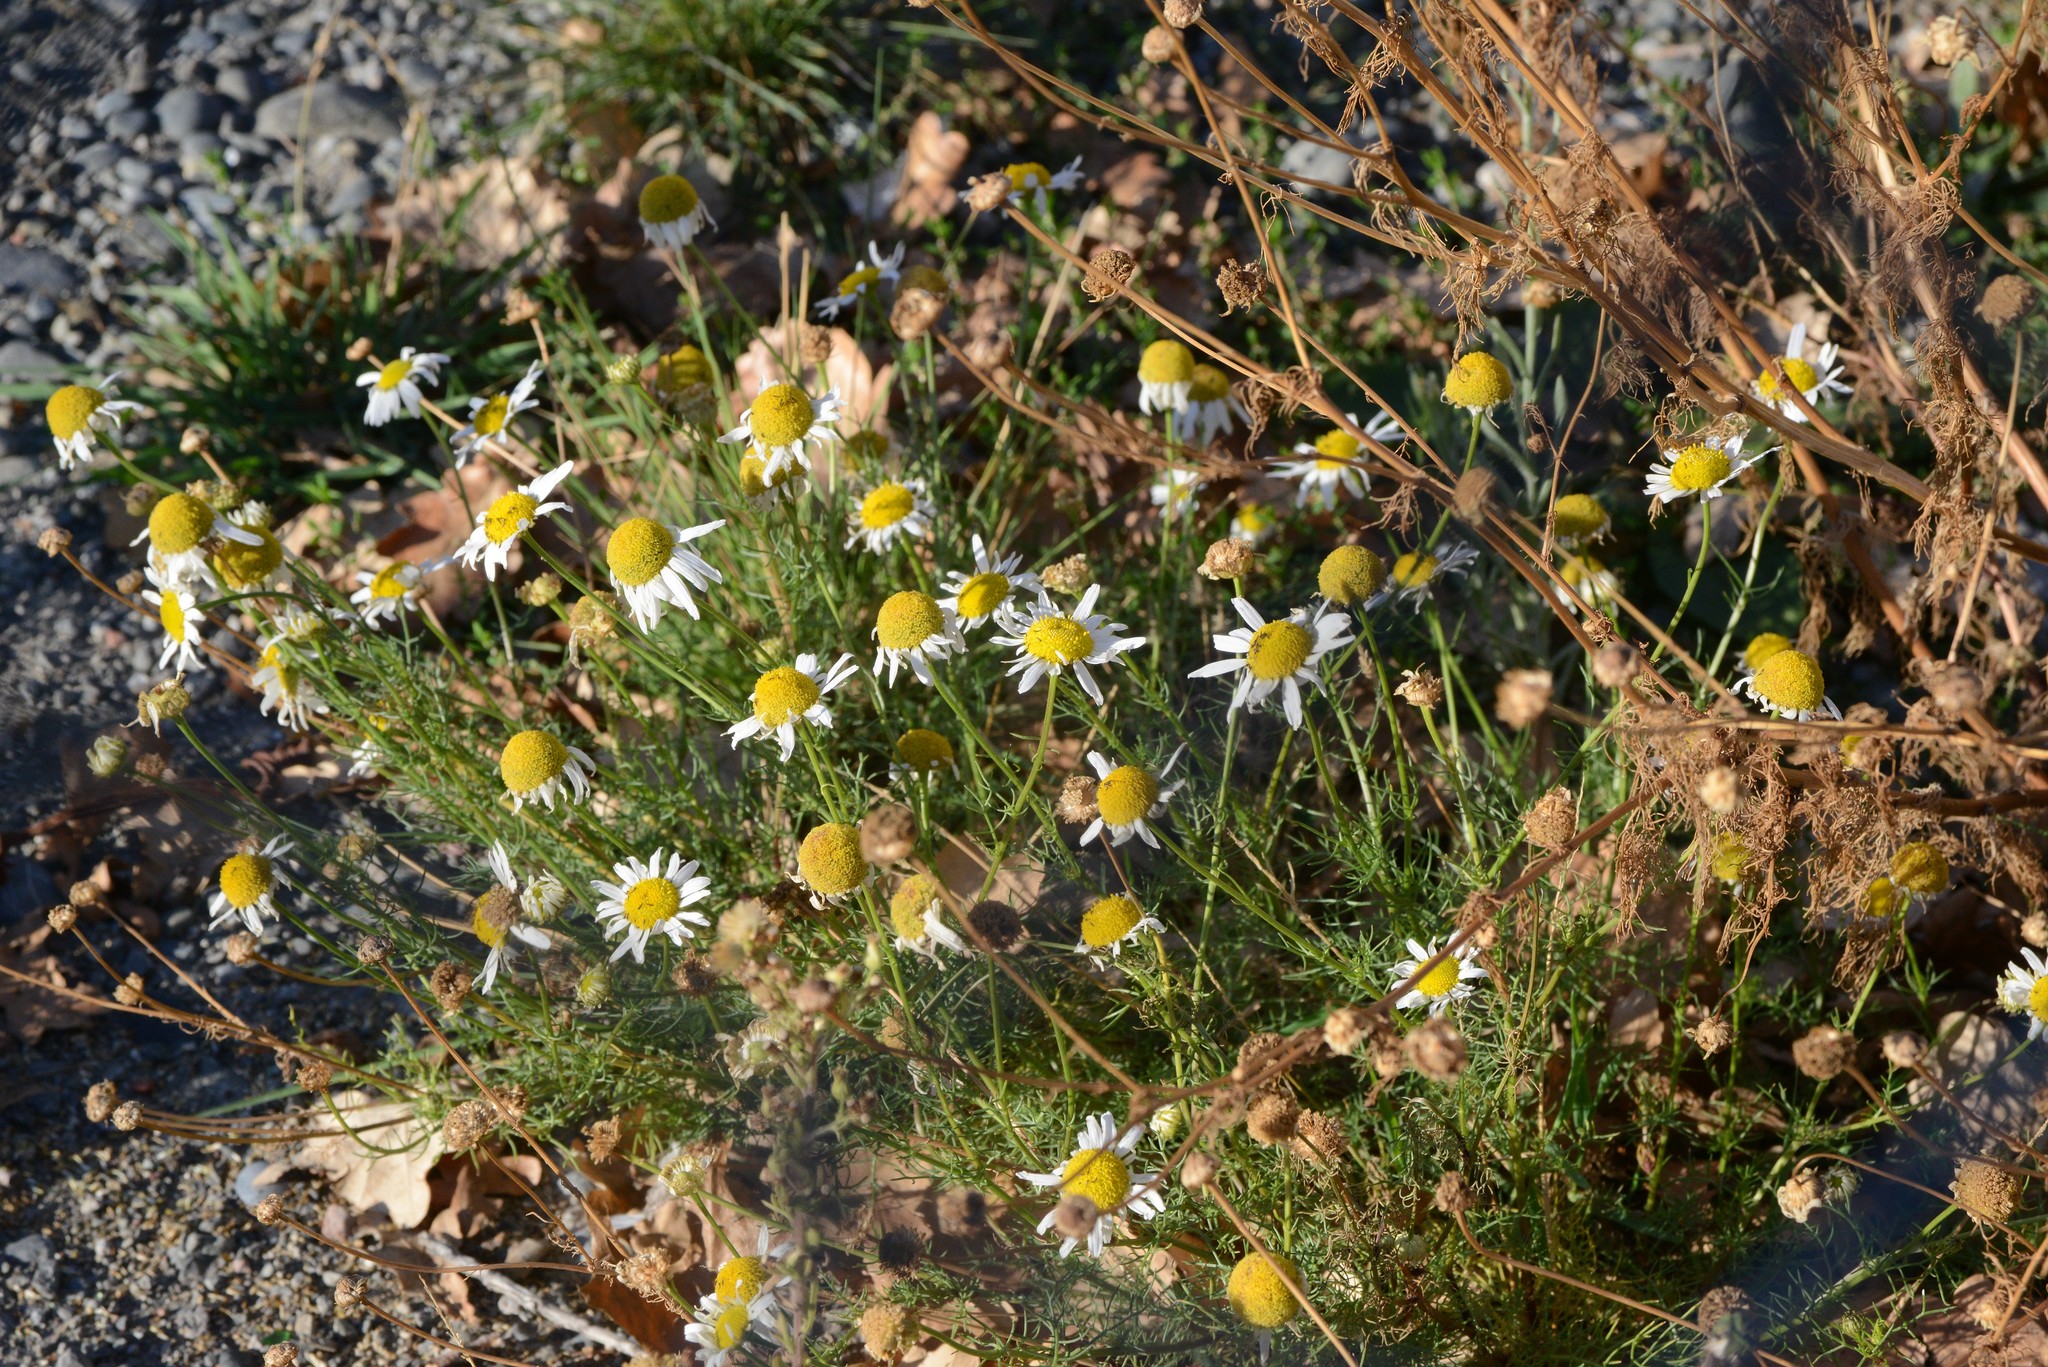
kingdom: Plantae
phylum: Tracheophyta
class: Magnoliopsida
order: Asterales
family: Asteraceae
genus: Tripleurospermum
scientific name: Tripleurospermum inodorum
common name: Scentless mayweed
